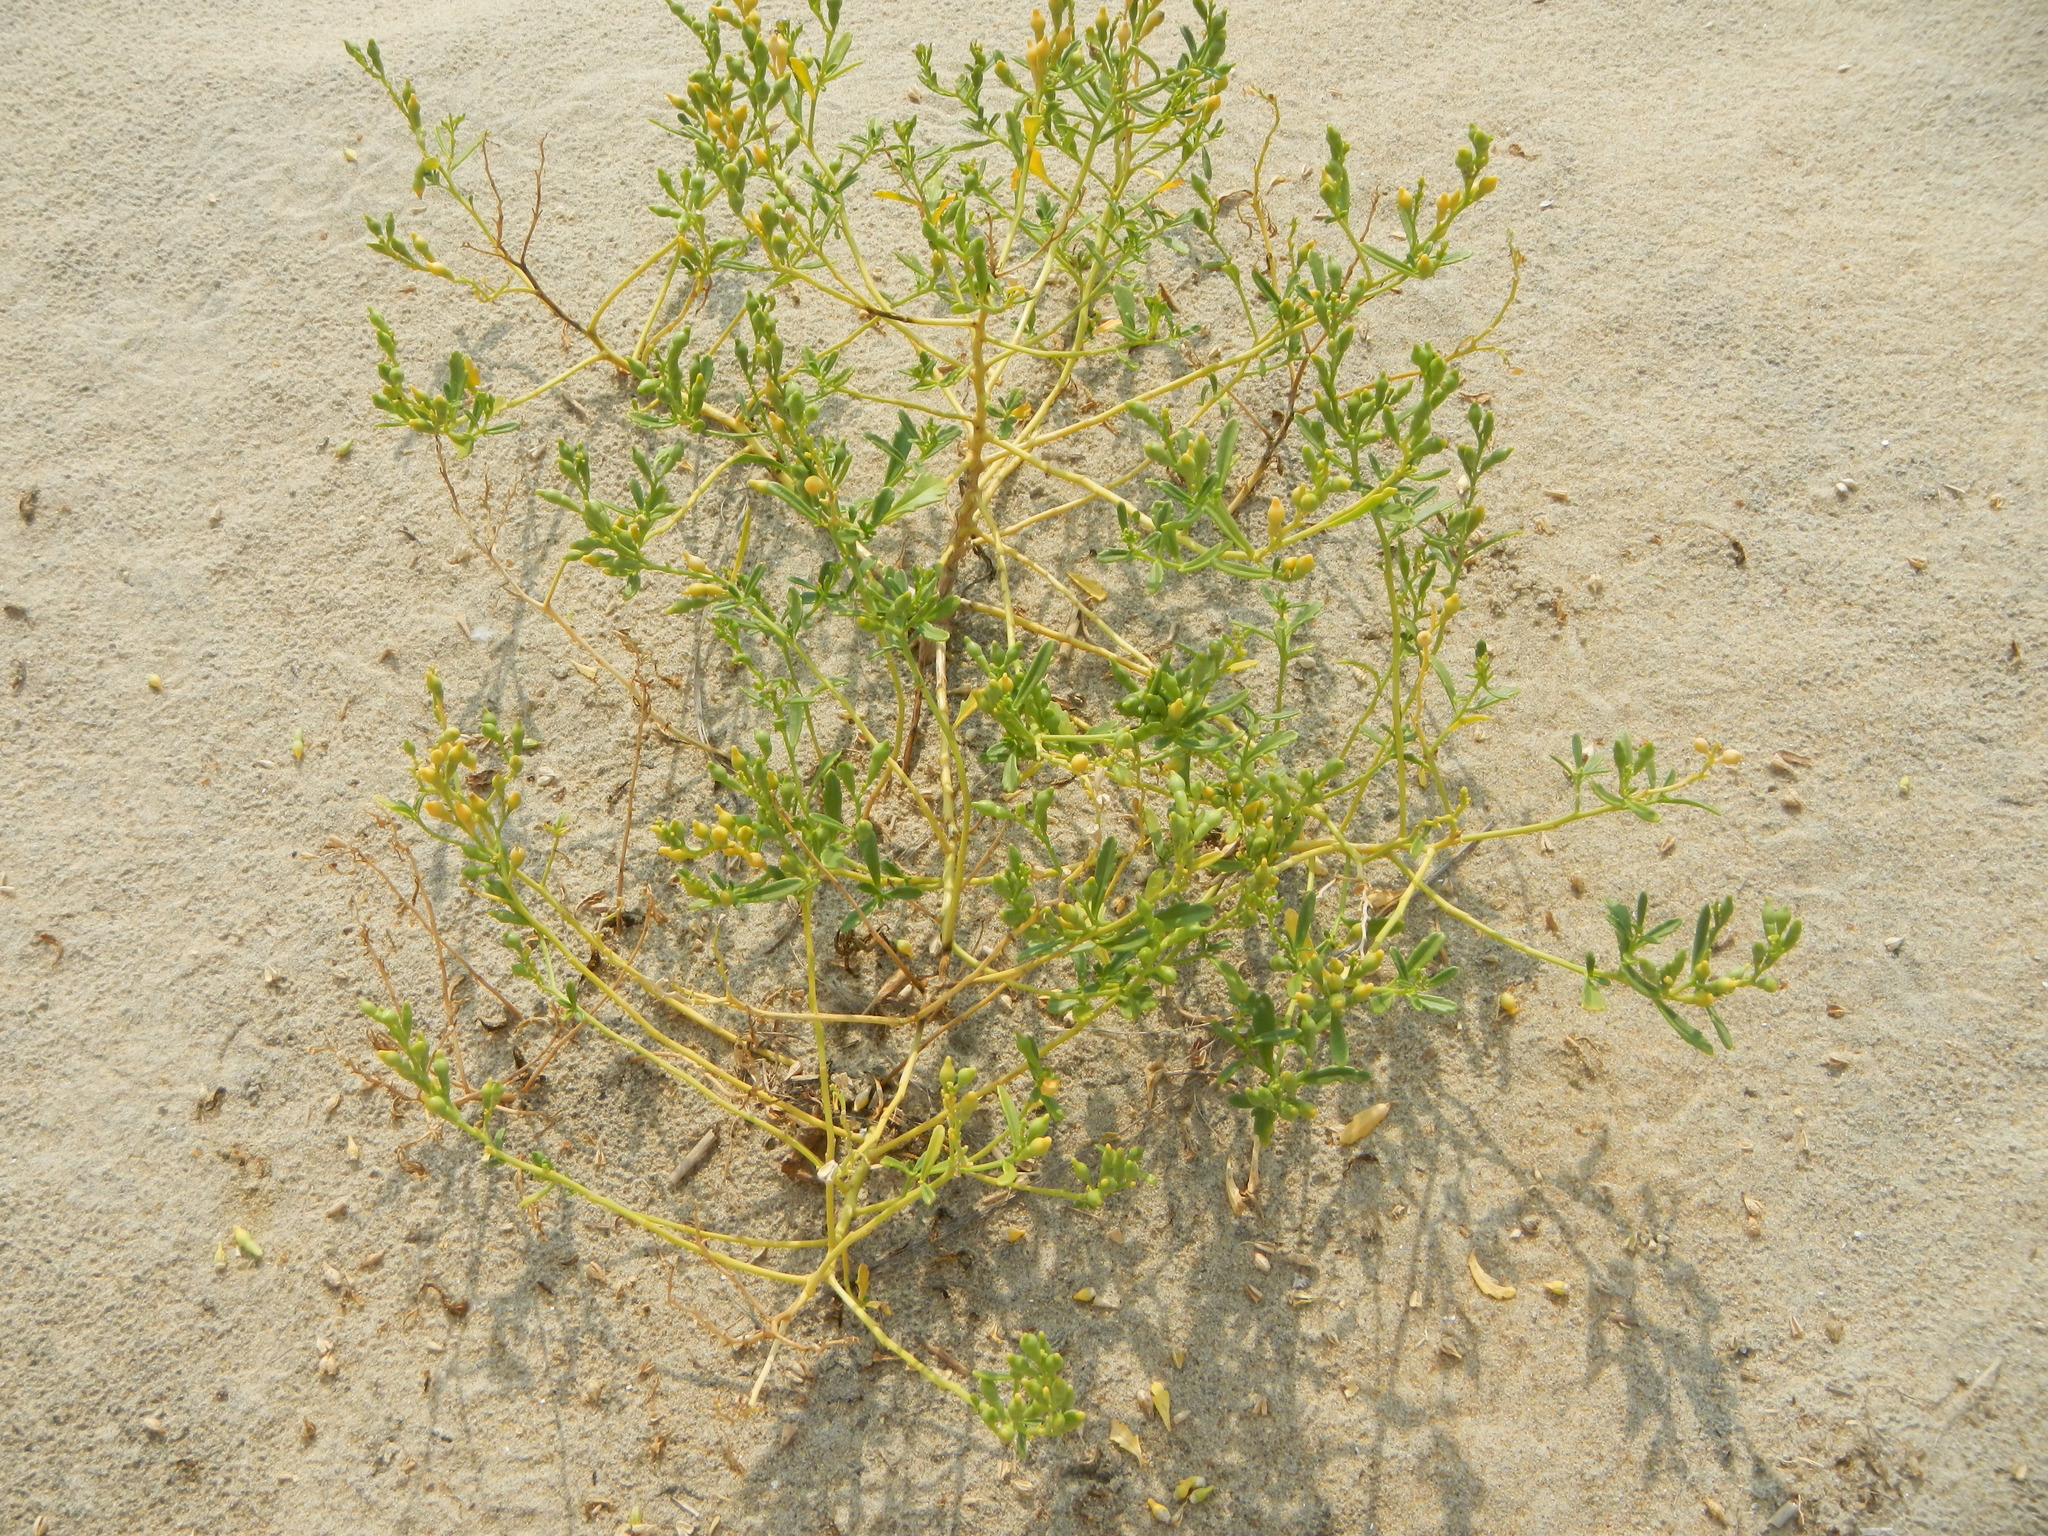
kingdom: Plantae
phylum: Tracheophyta
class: Magnoliopsida
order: Brassicales
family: Brassicaceae
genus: Cakile
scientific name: Cakile edentula
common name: American sea rocket
